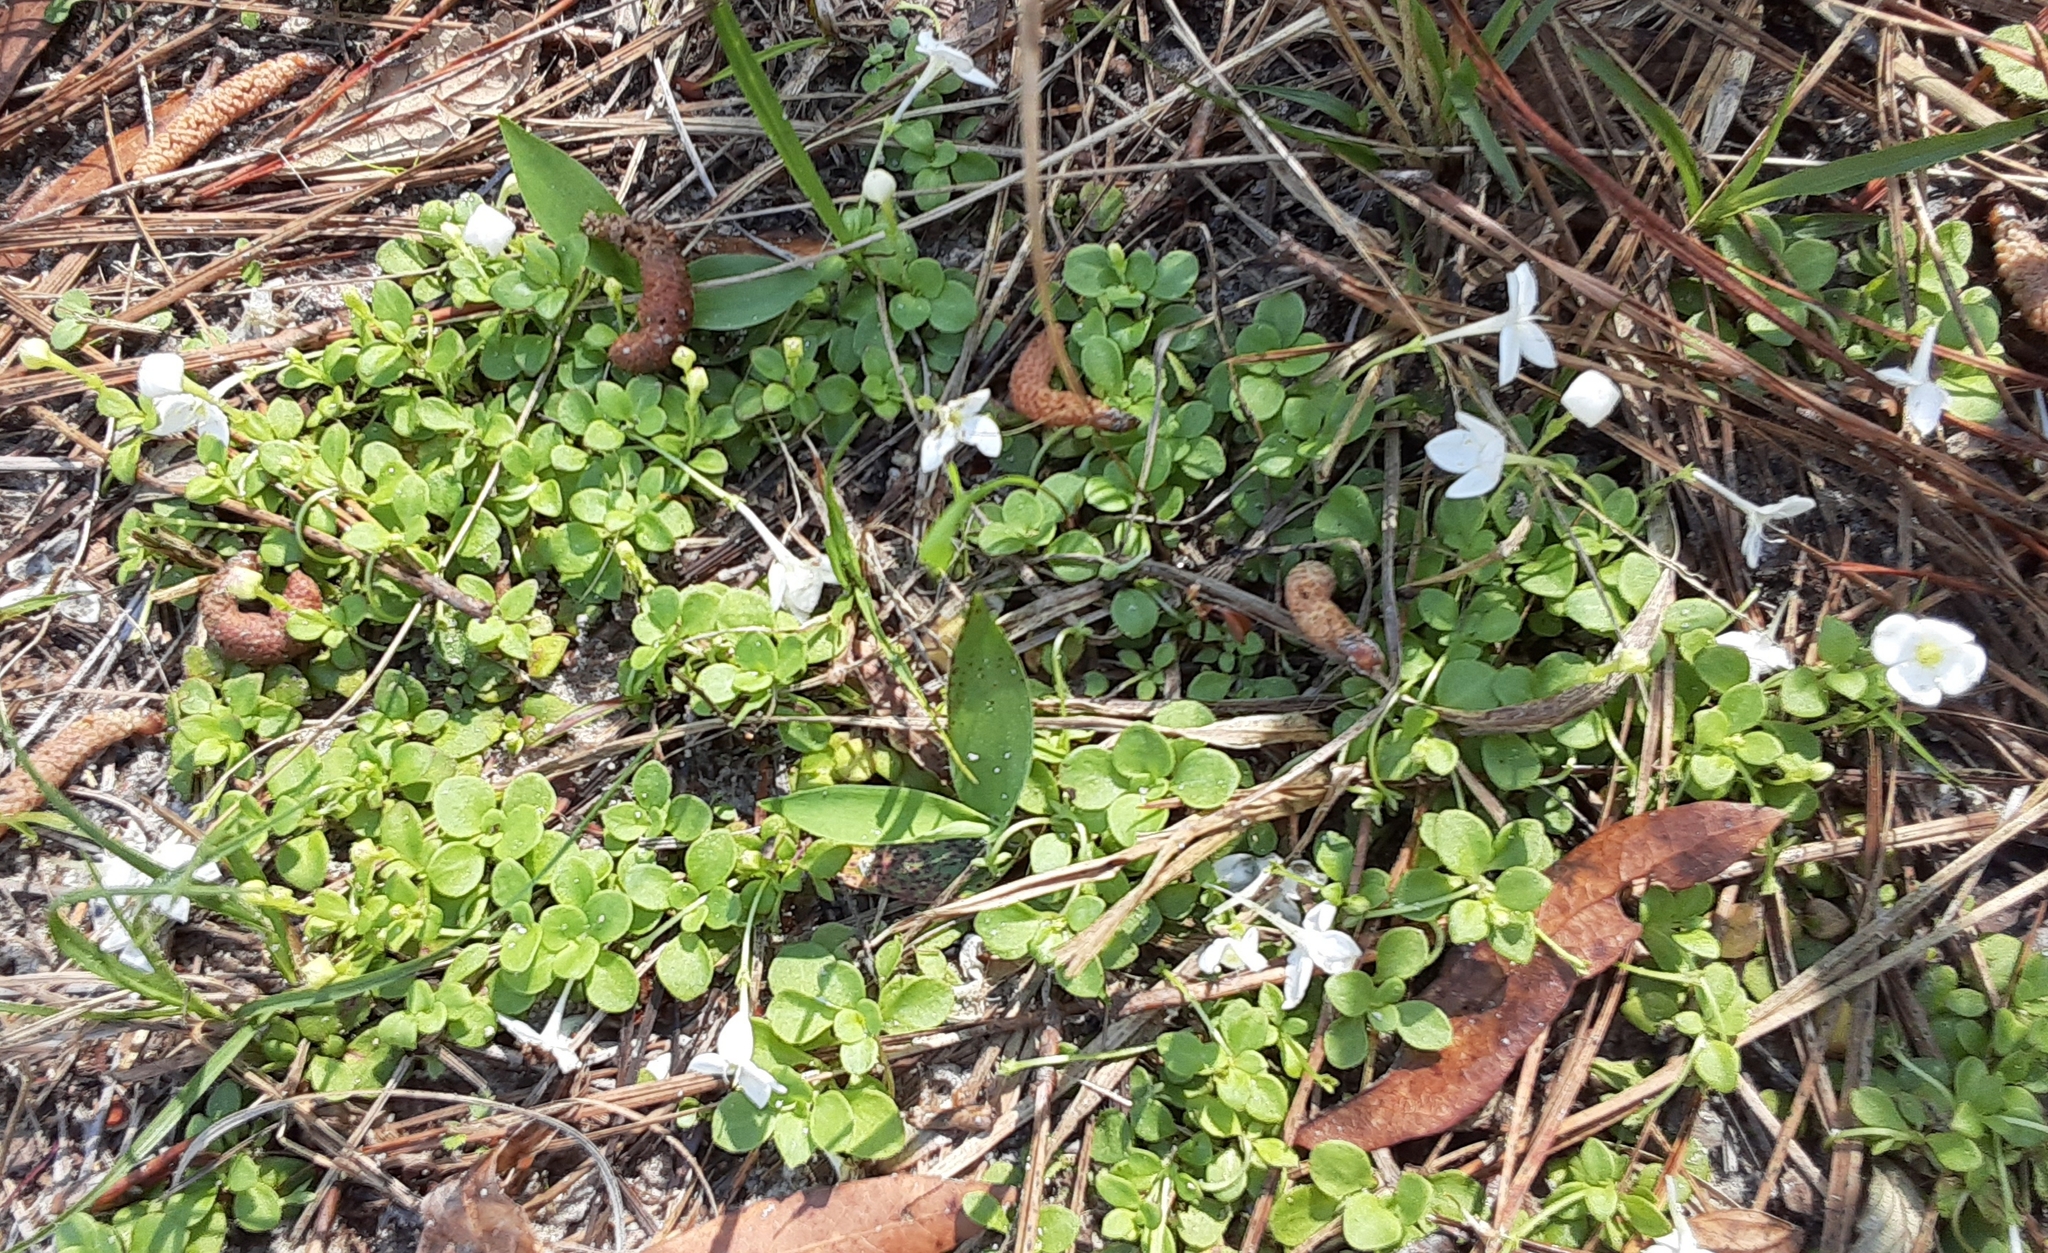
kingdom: Plantae
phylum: Tracheophyta
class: Magnoliopsida
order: Gentianales
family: Rubiaceae
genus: Houstonia
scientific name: Houstonia procumbens
